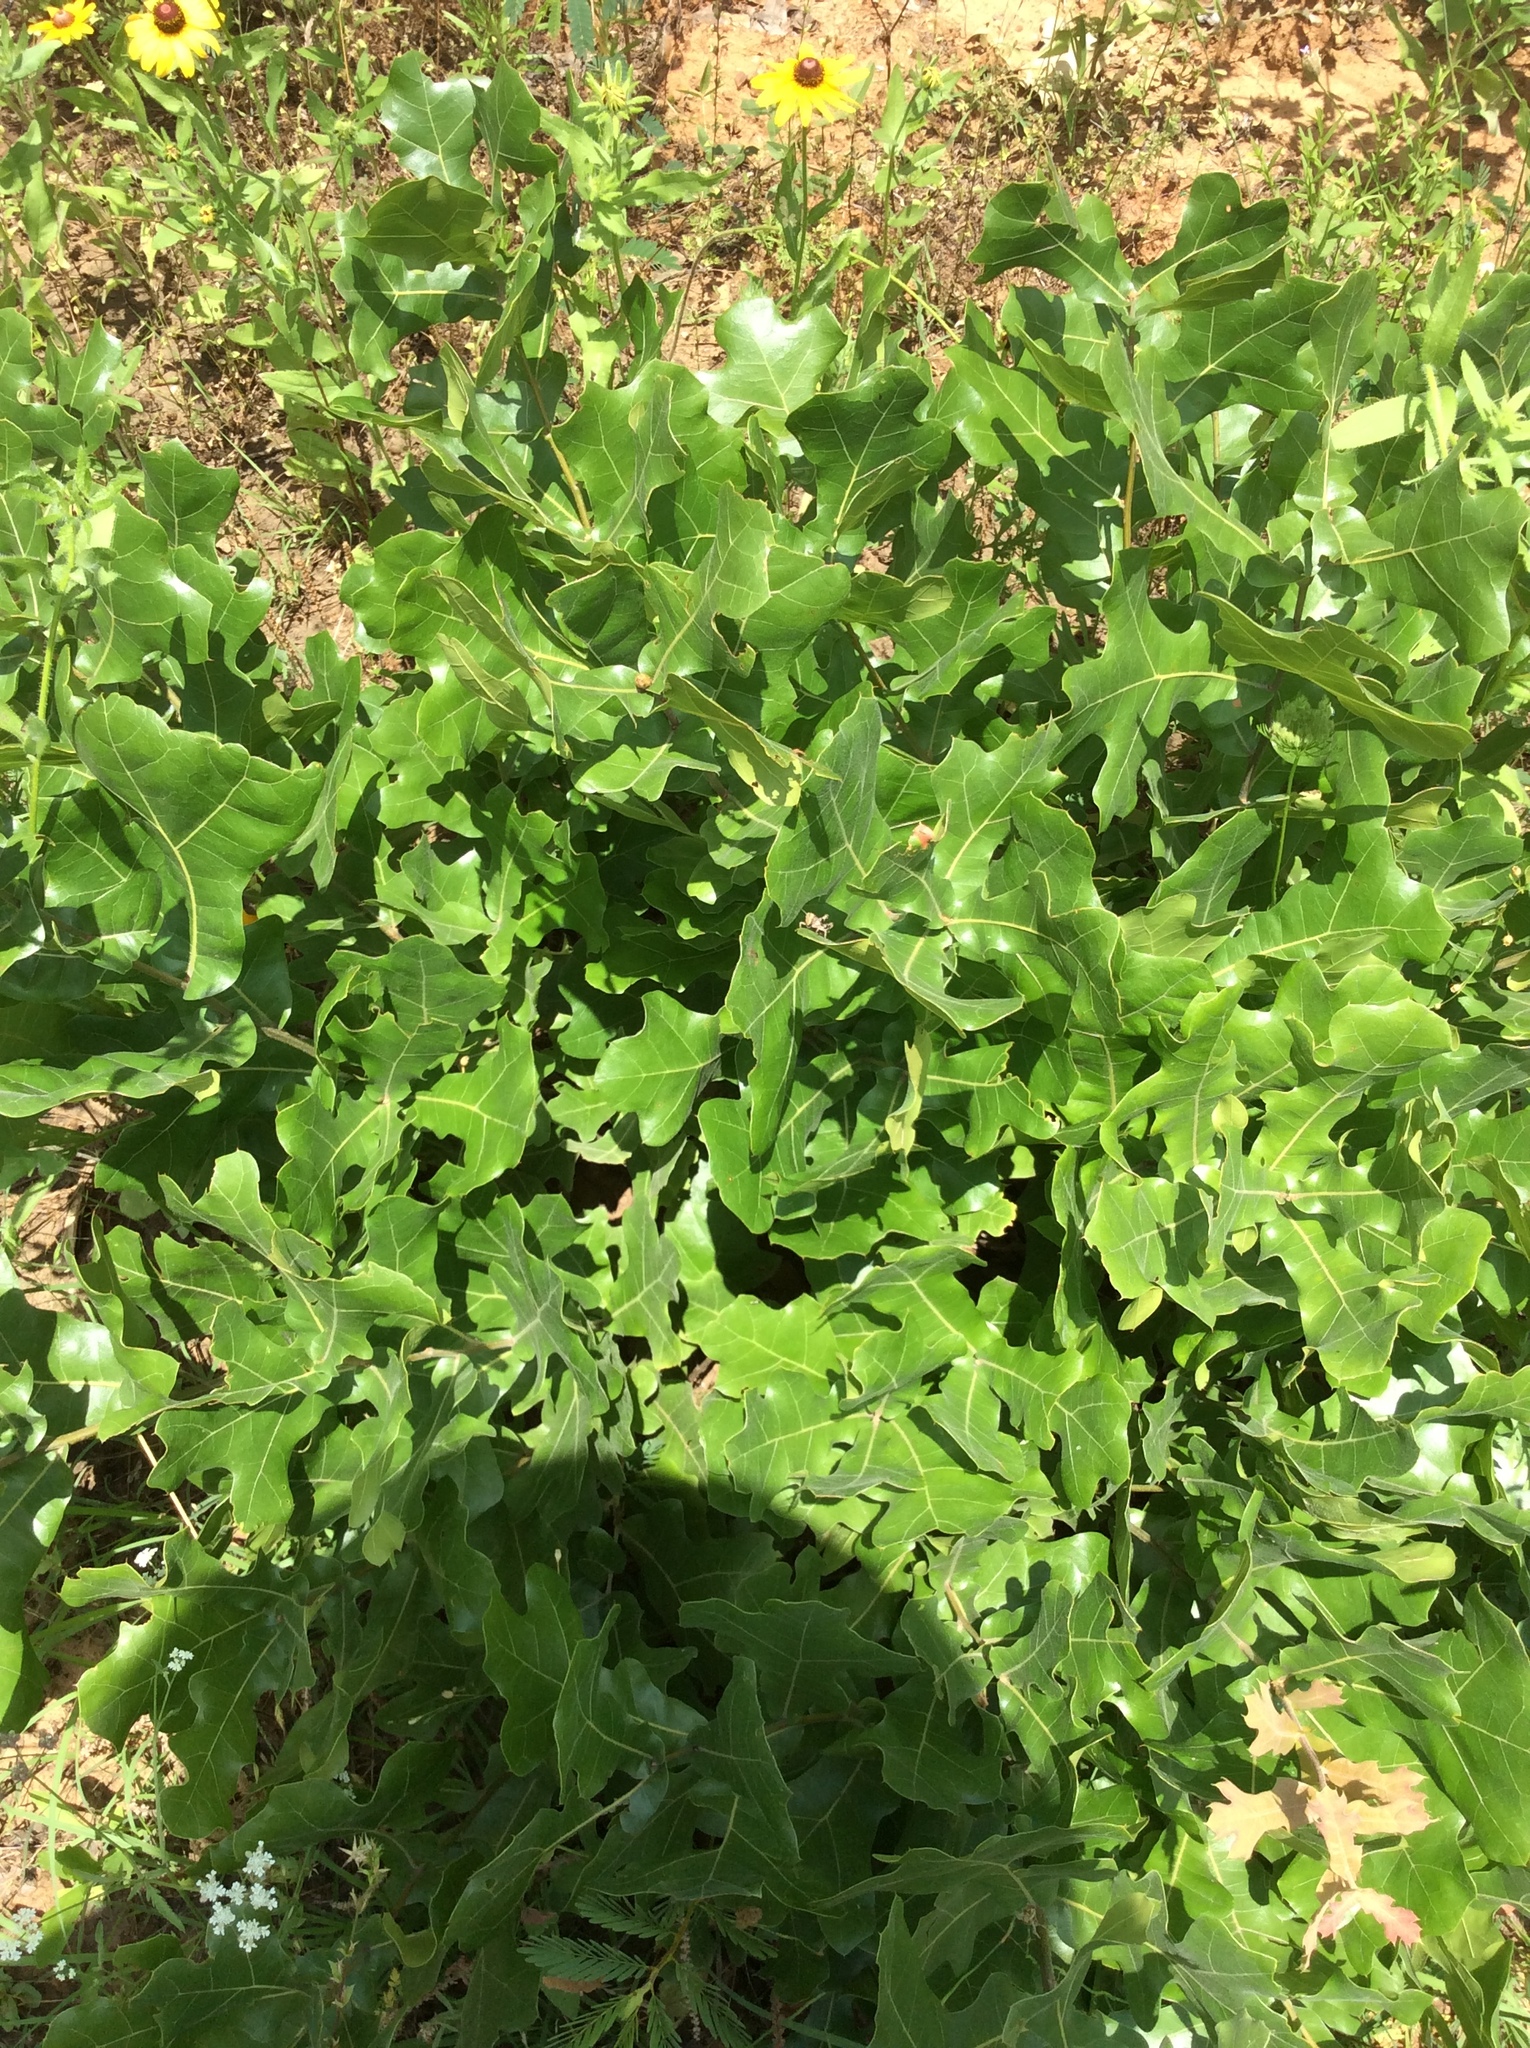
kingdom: Plantae
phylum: Tracheophyta
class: Magnoliopsida
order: Fagales
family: Fagaceae
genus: Quercus
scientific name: Quercus marilandica
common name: Blackjack oak
